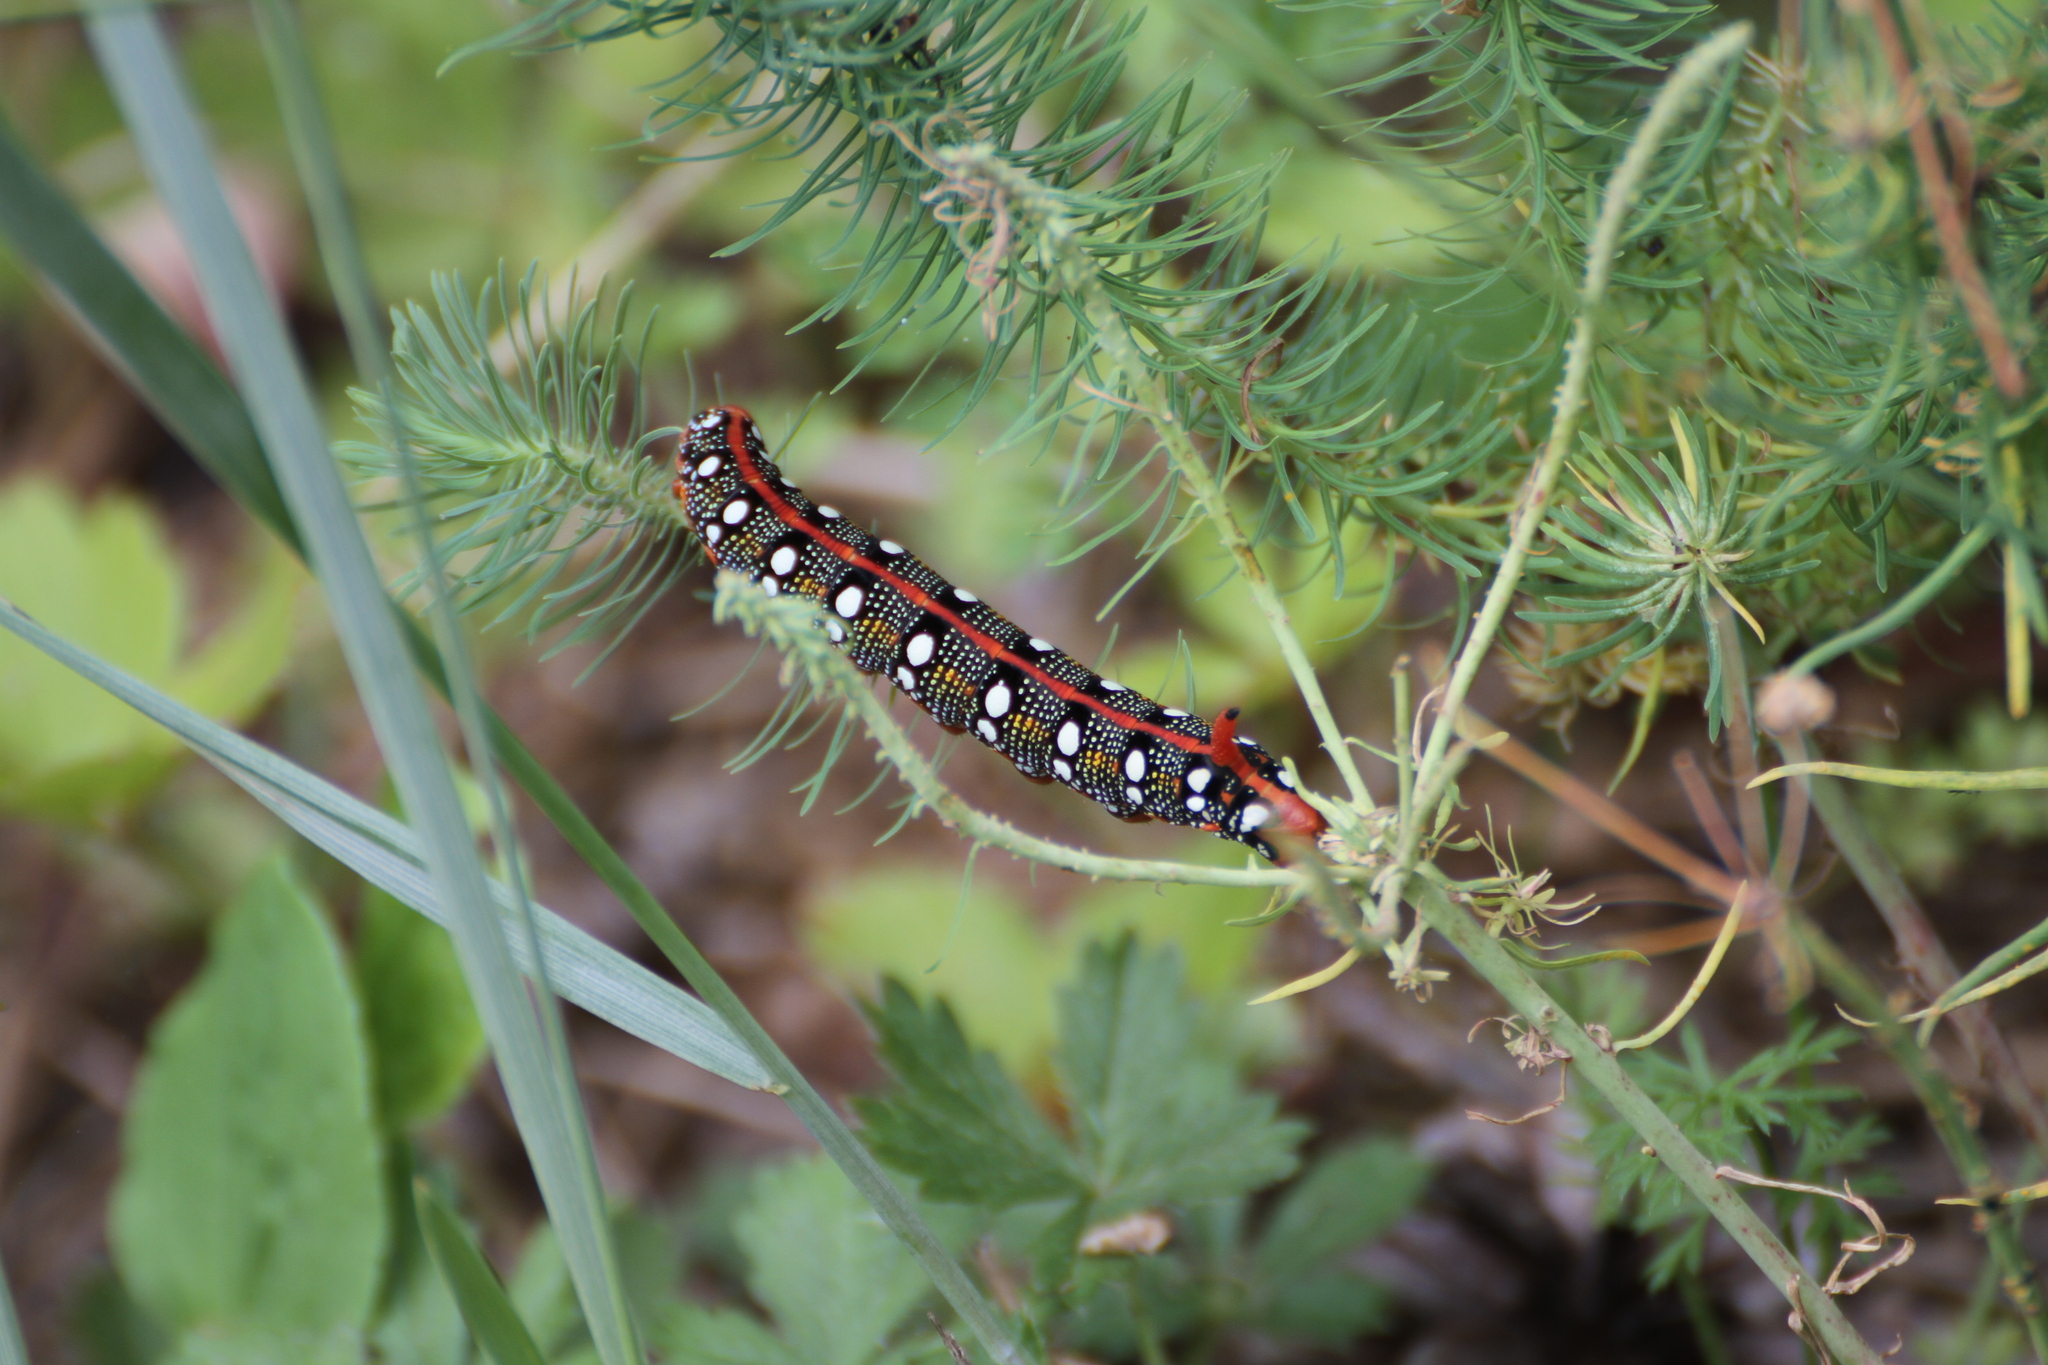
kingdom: Animalia
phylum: Arthropoda
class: Insecta
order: Lepidoptera
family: Sphingidae
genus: Hyles
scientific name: Hyles euphorbiae
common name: Spurge hawk-moth
